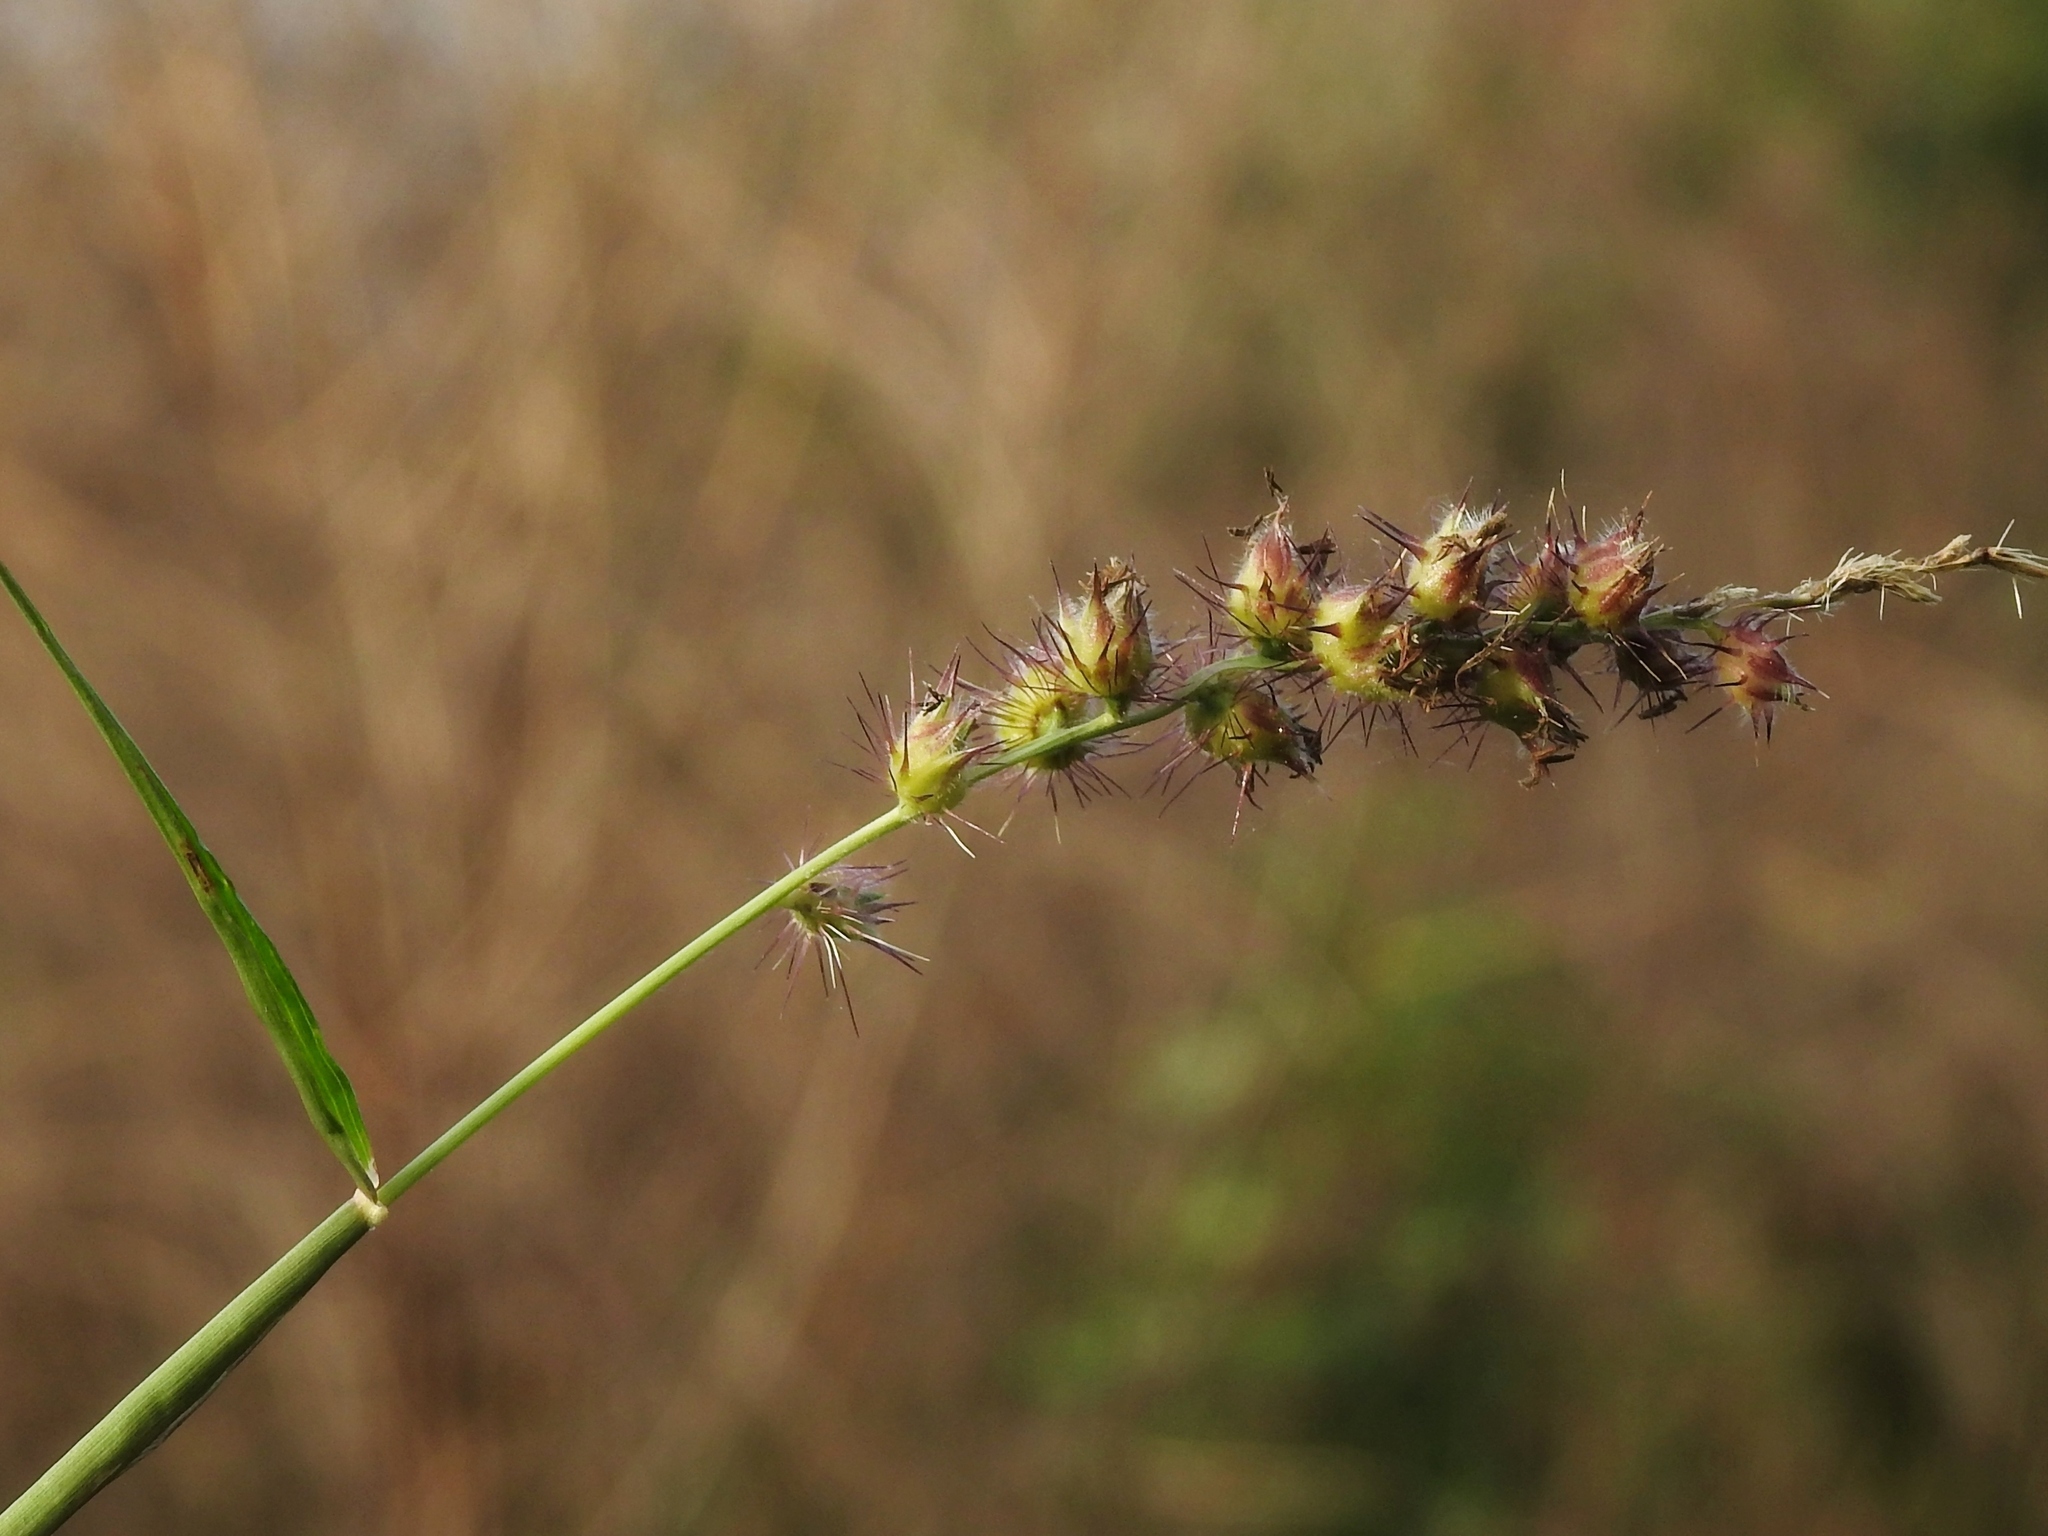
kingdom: Plantae
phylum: Tracheophyta
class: Liliopsida
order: Poales
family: Poaceae
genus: Cenchrus
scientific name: Cenchrus echinatus
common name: Southern sandbur
